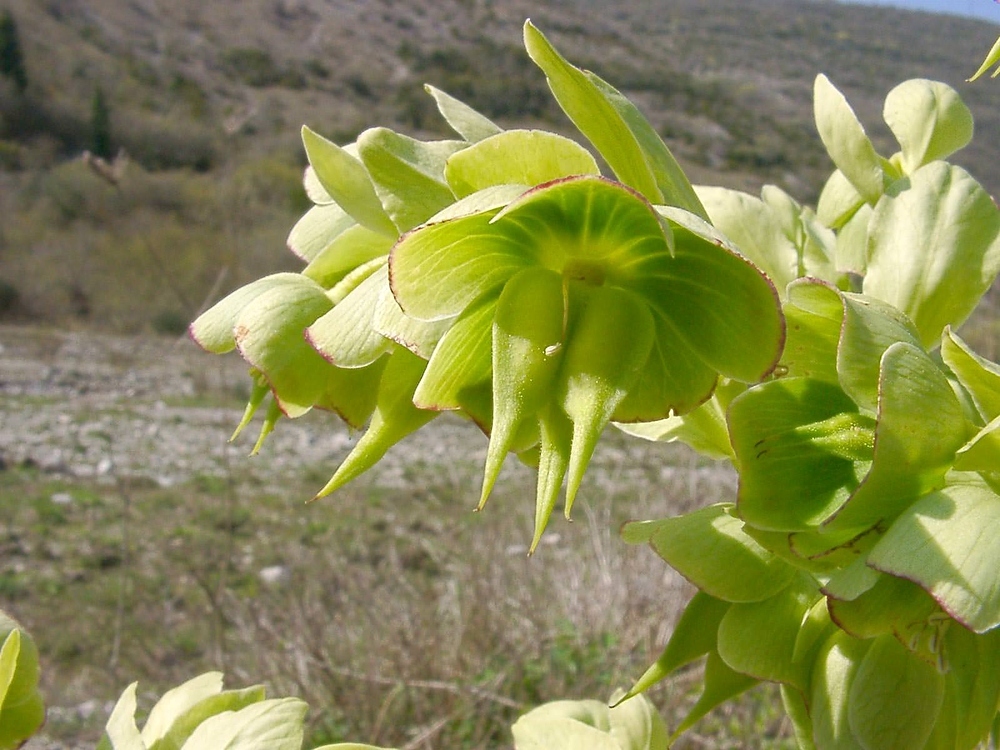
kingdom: Plantae
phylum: Tracheophyta
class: Magnoliopsida
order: Ranunculales
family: Ranunculaceae
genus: Helleborus
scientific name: Helleborus foetidus
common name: Stinking hellebore
